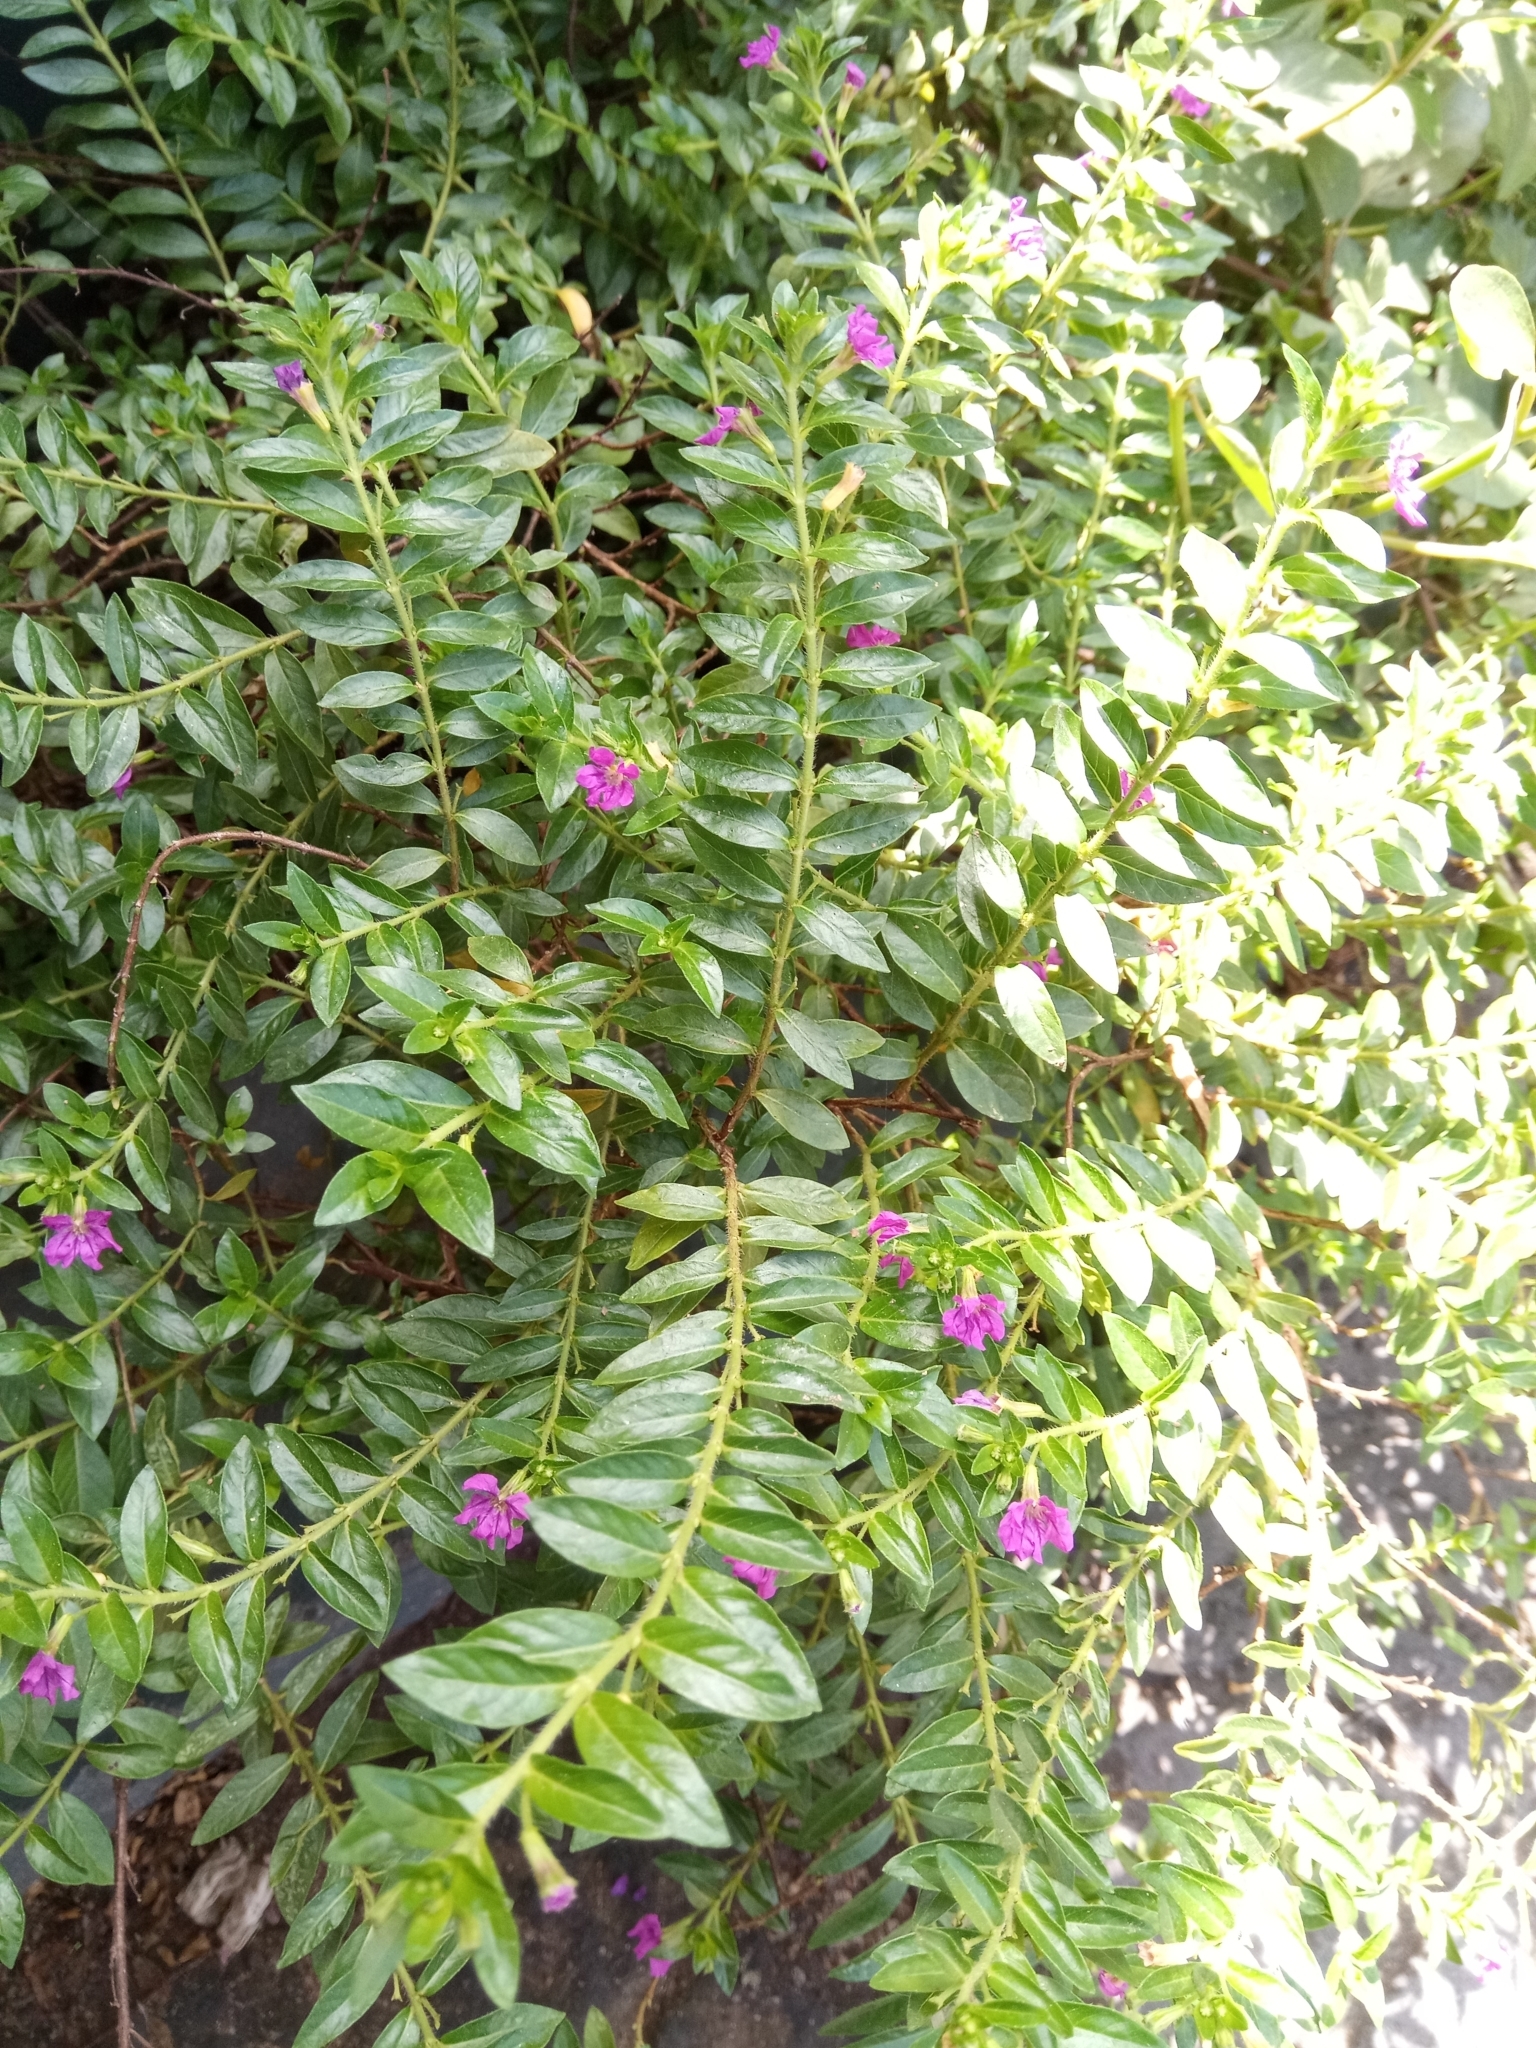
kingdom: Plantae
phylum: Tracheophyta
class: Magnoliopsida
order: Myrtales
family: Lythraceae
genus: Cuphea
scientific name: Cuphea hyssopifolia
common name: False heather
